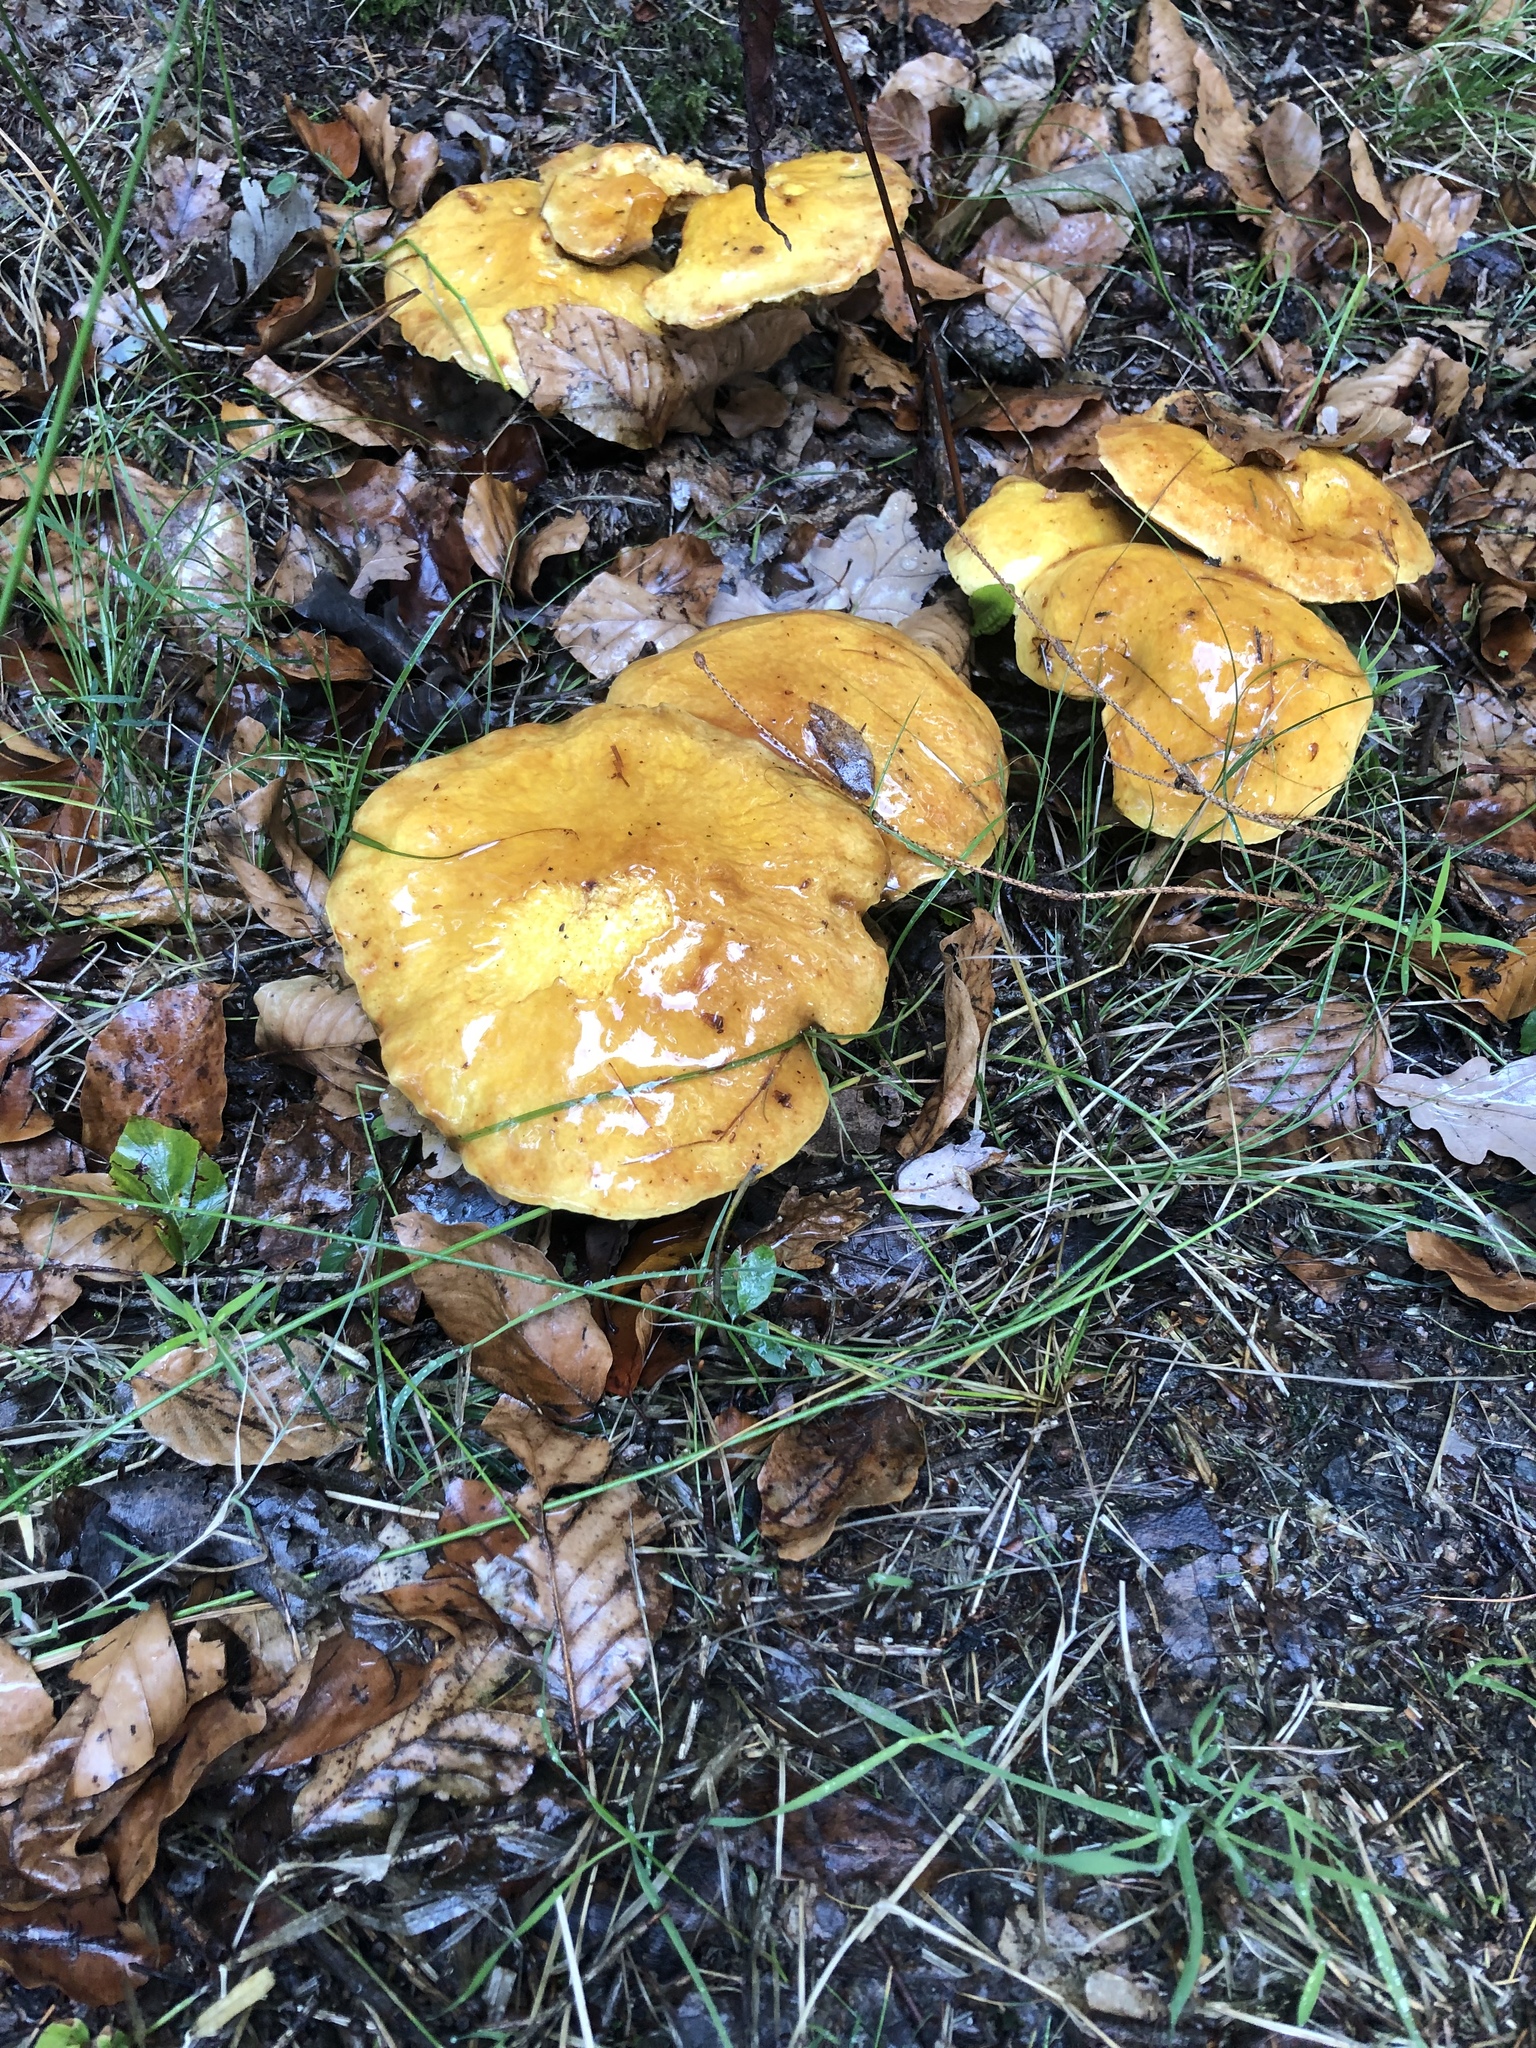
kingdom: Fungi
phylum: Basidiomycota
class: Agaricomycetes
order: Boletales
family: Suillaceae
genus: Suillus
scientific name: Suillus grevillei
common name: Larch bolete
